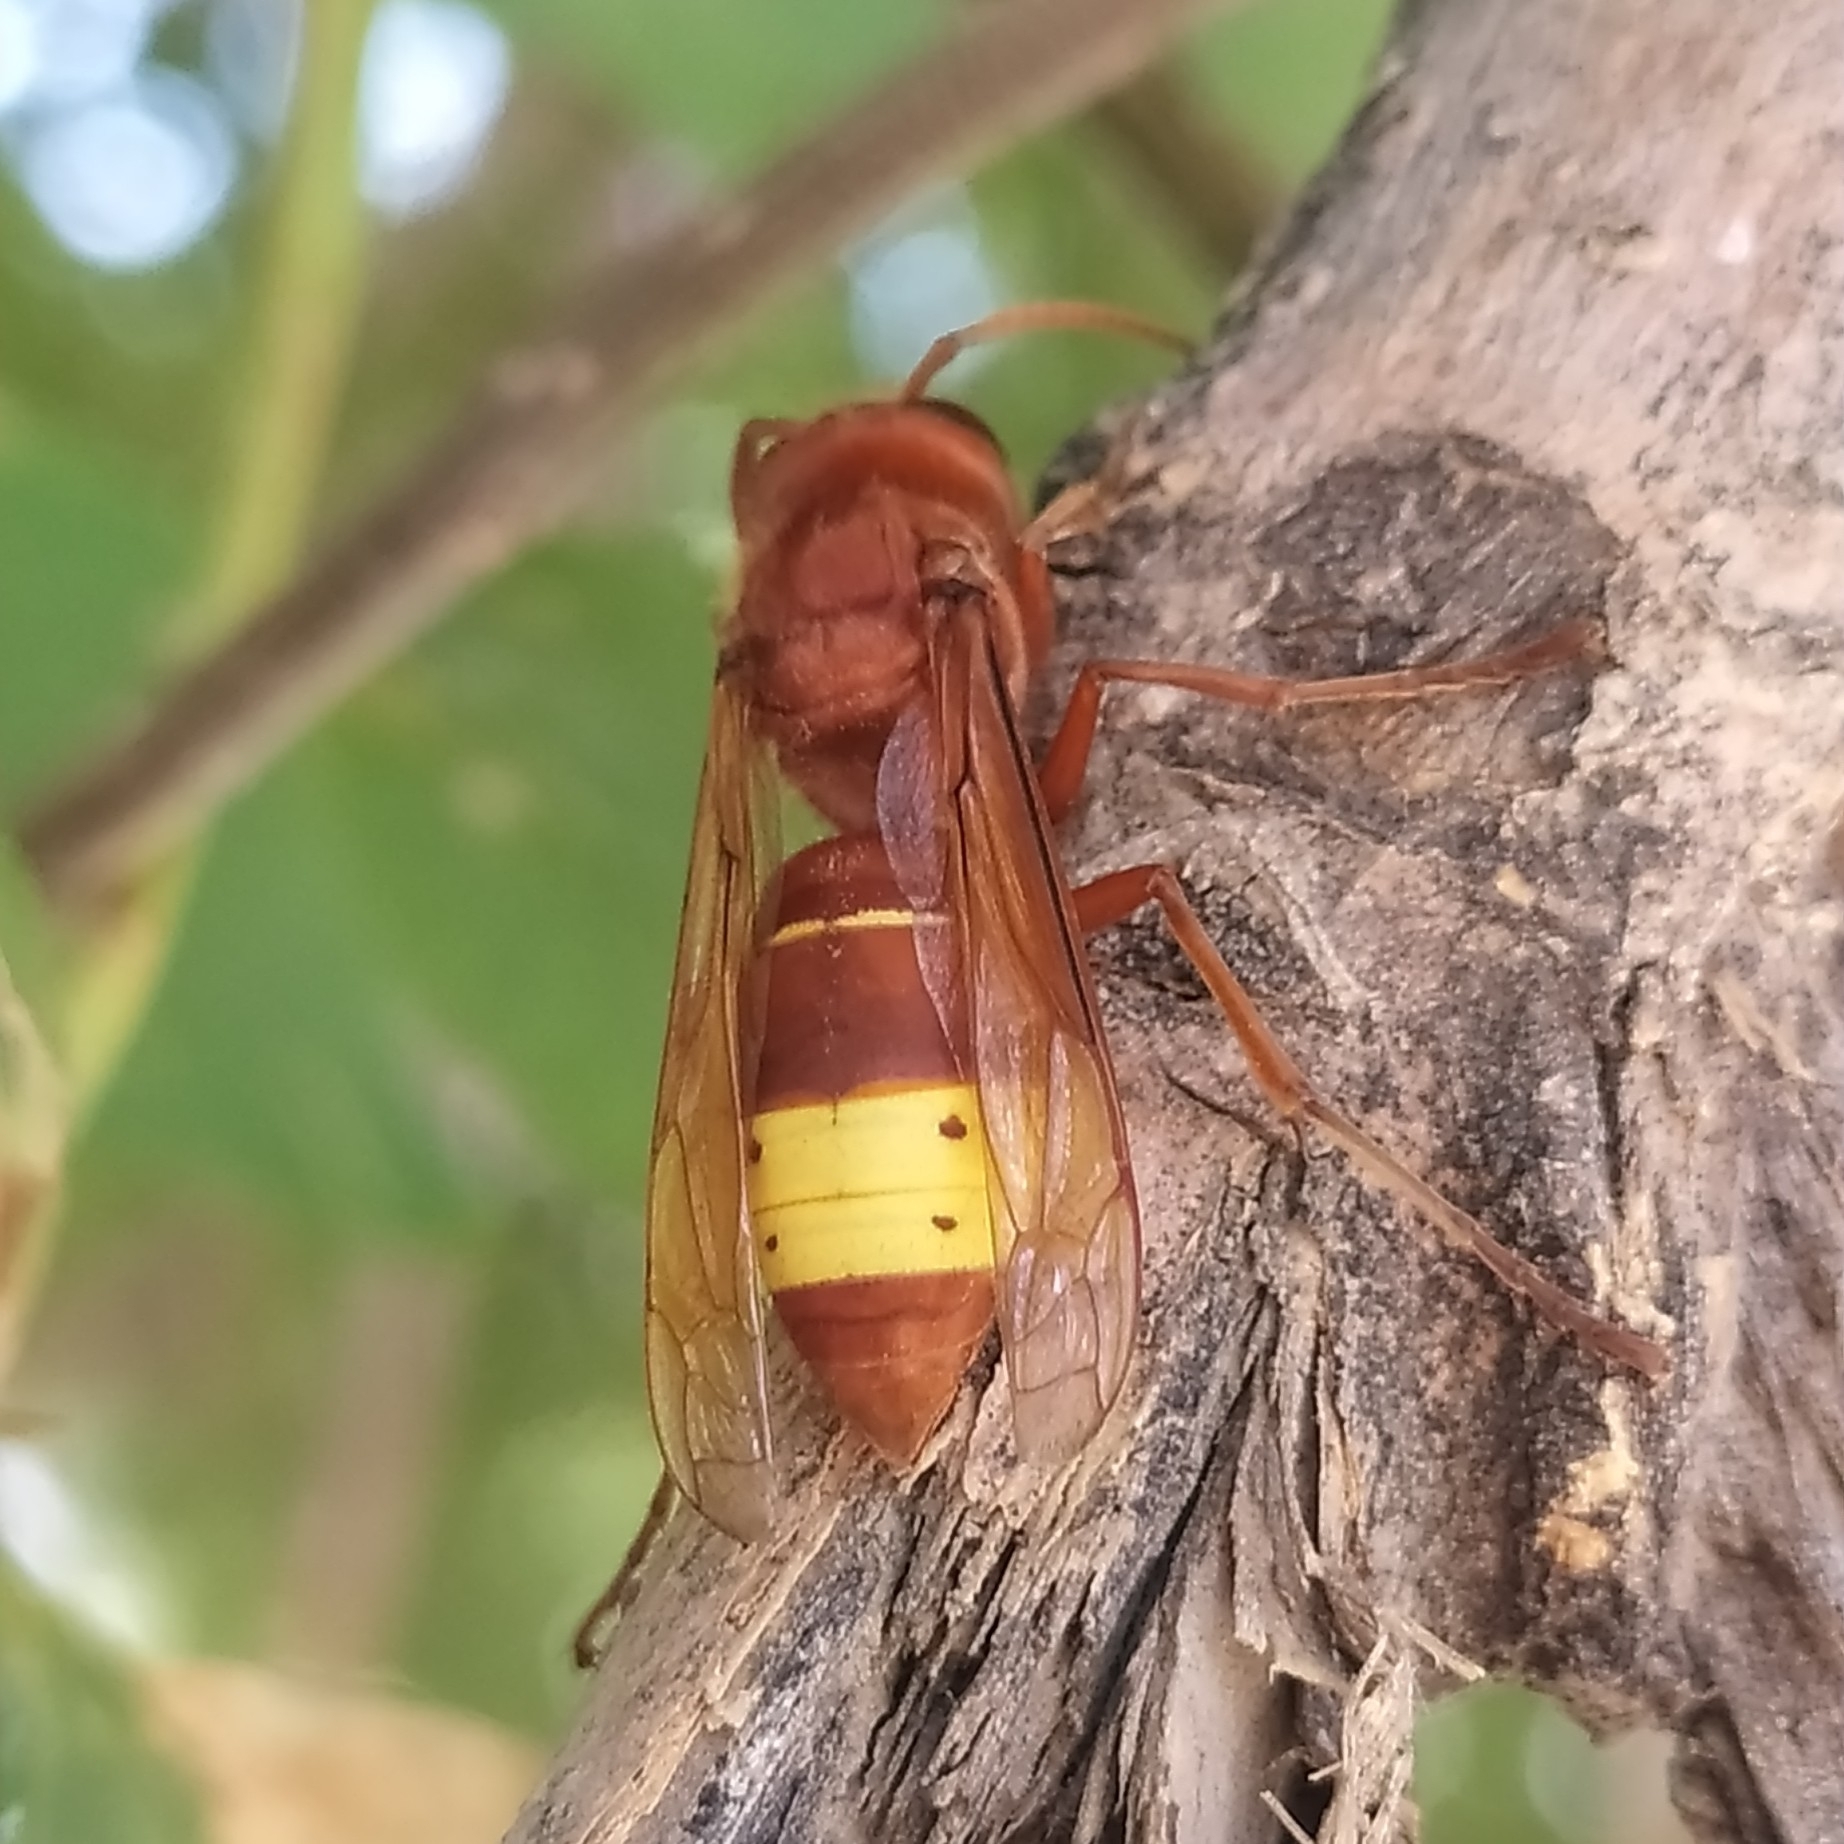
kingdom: Animalia
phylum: Arthropoda
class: Insecta
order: Hymenoptera
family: Vespidae
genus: Vespa
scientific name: Vespa orientalis
